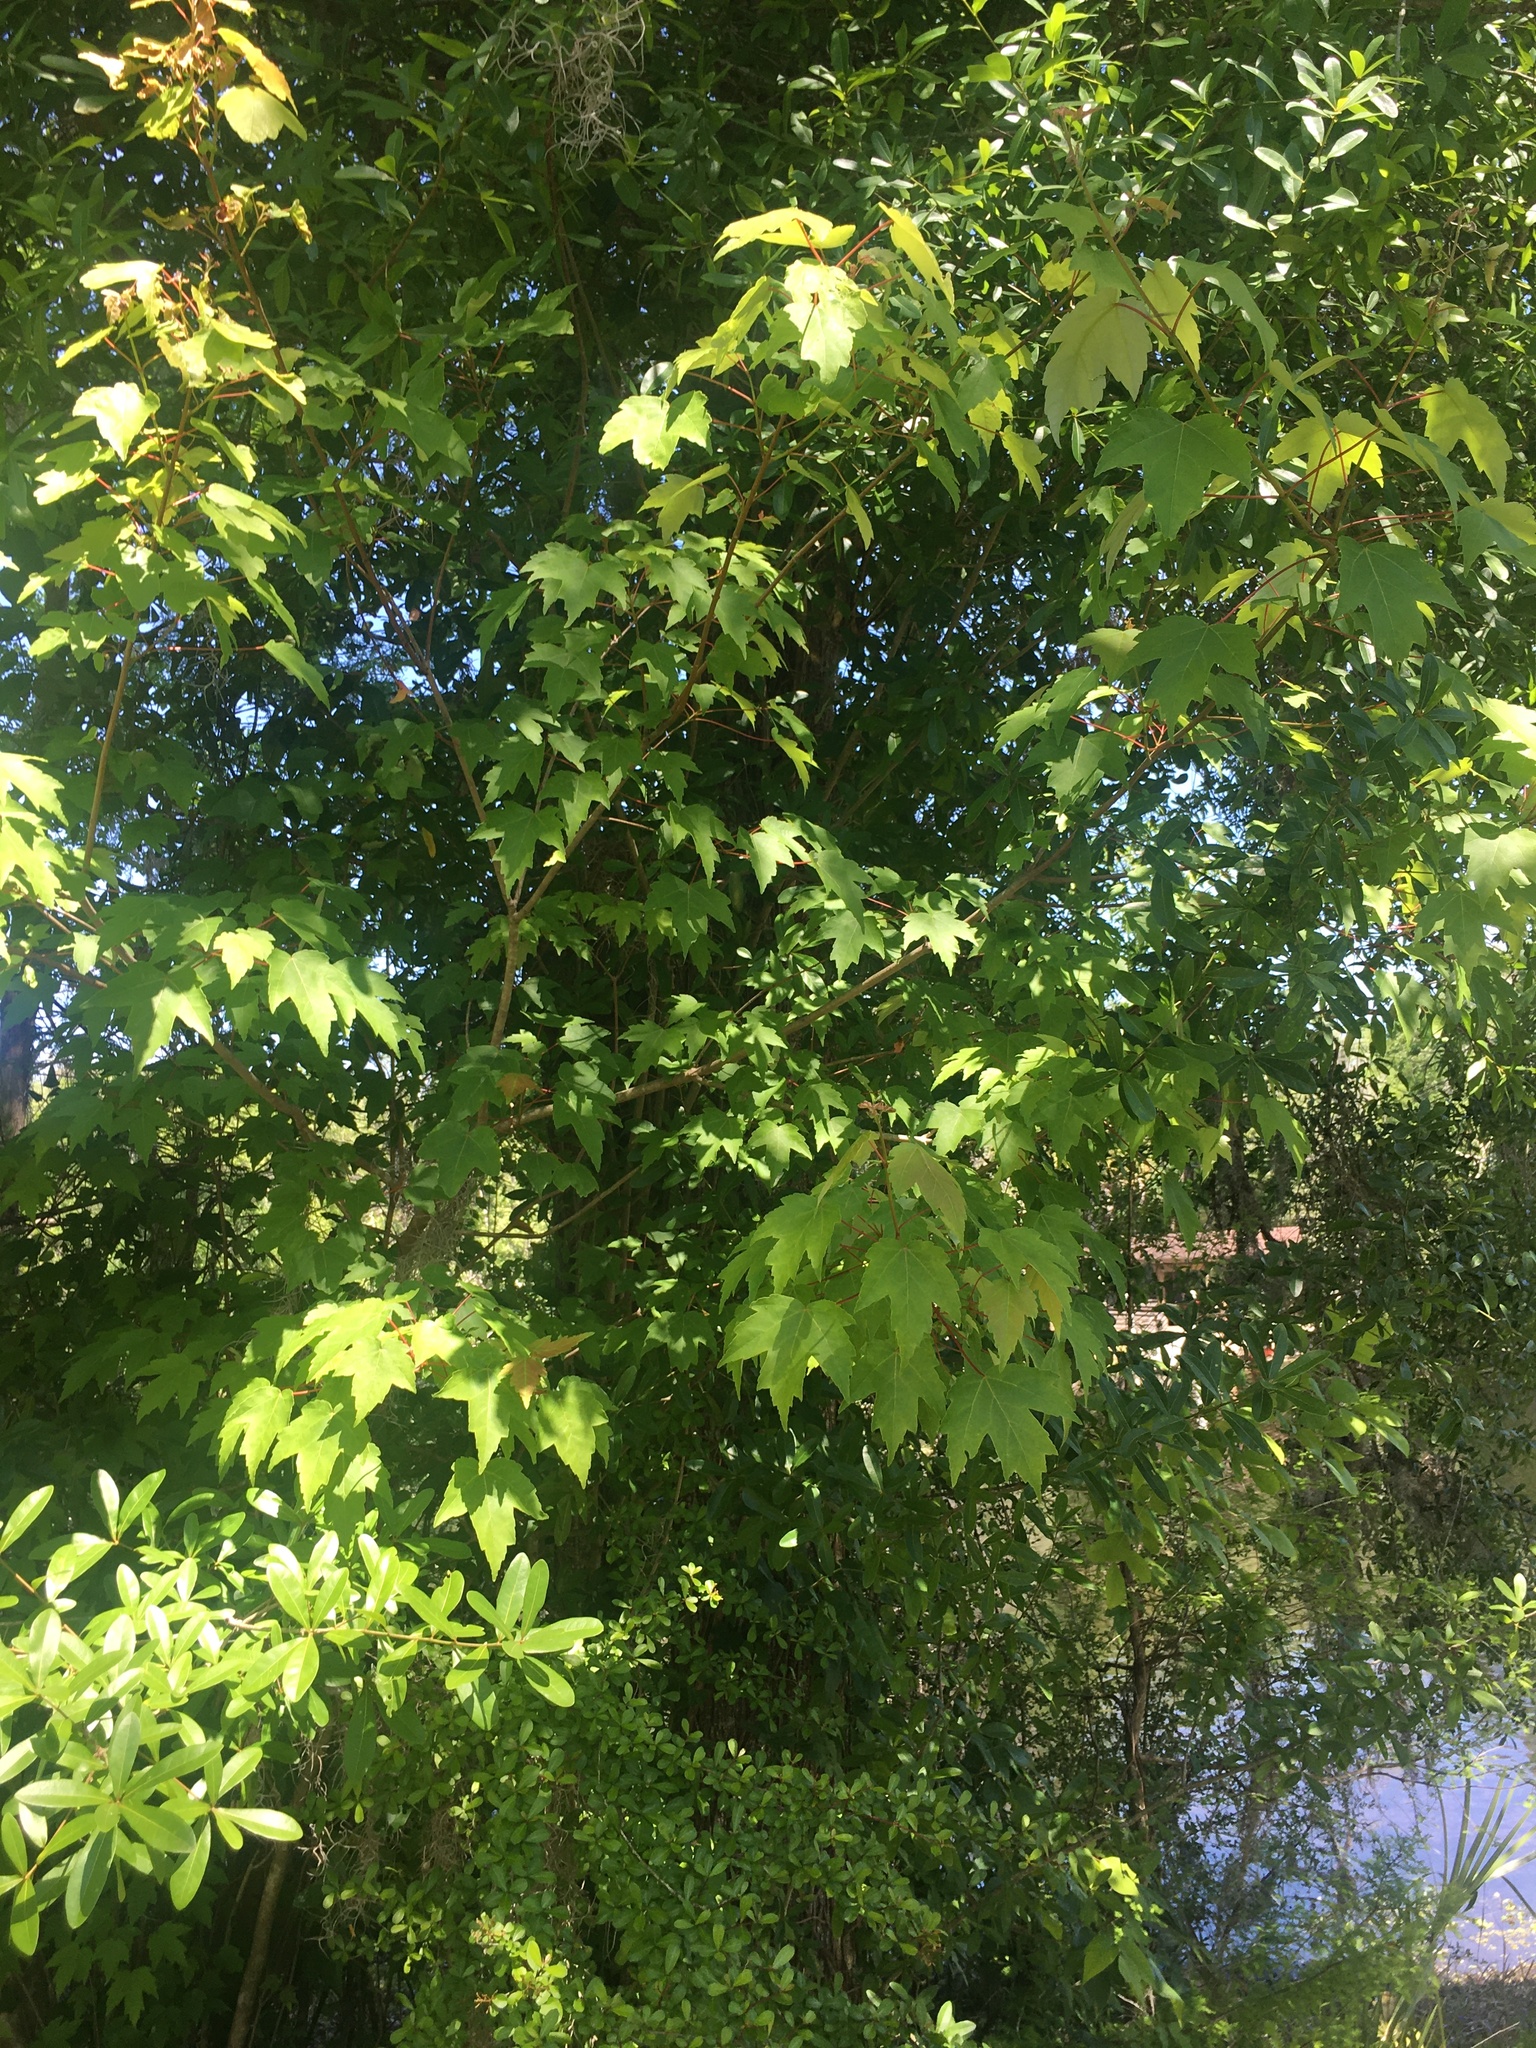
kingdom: Plantae
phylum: Tracheophyta
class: Magnoliopsida
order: Sapindales
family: Sapindaceae
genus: Acer
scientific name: Acer rubrum
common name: Red maple
